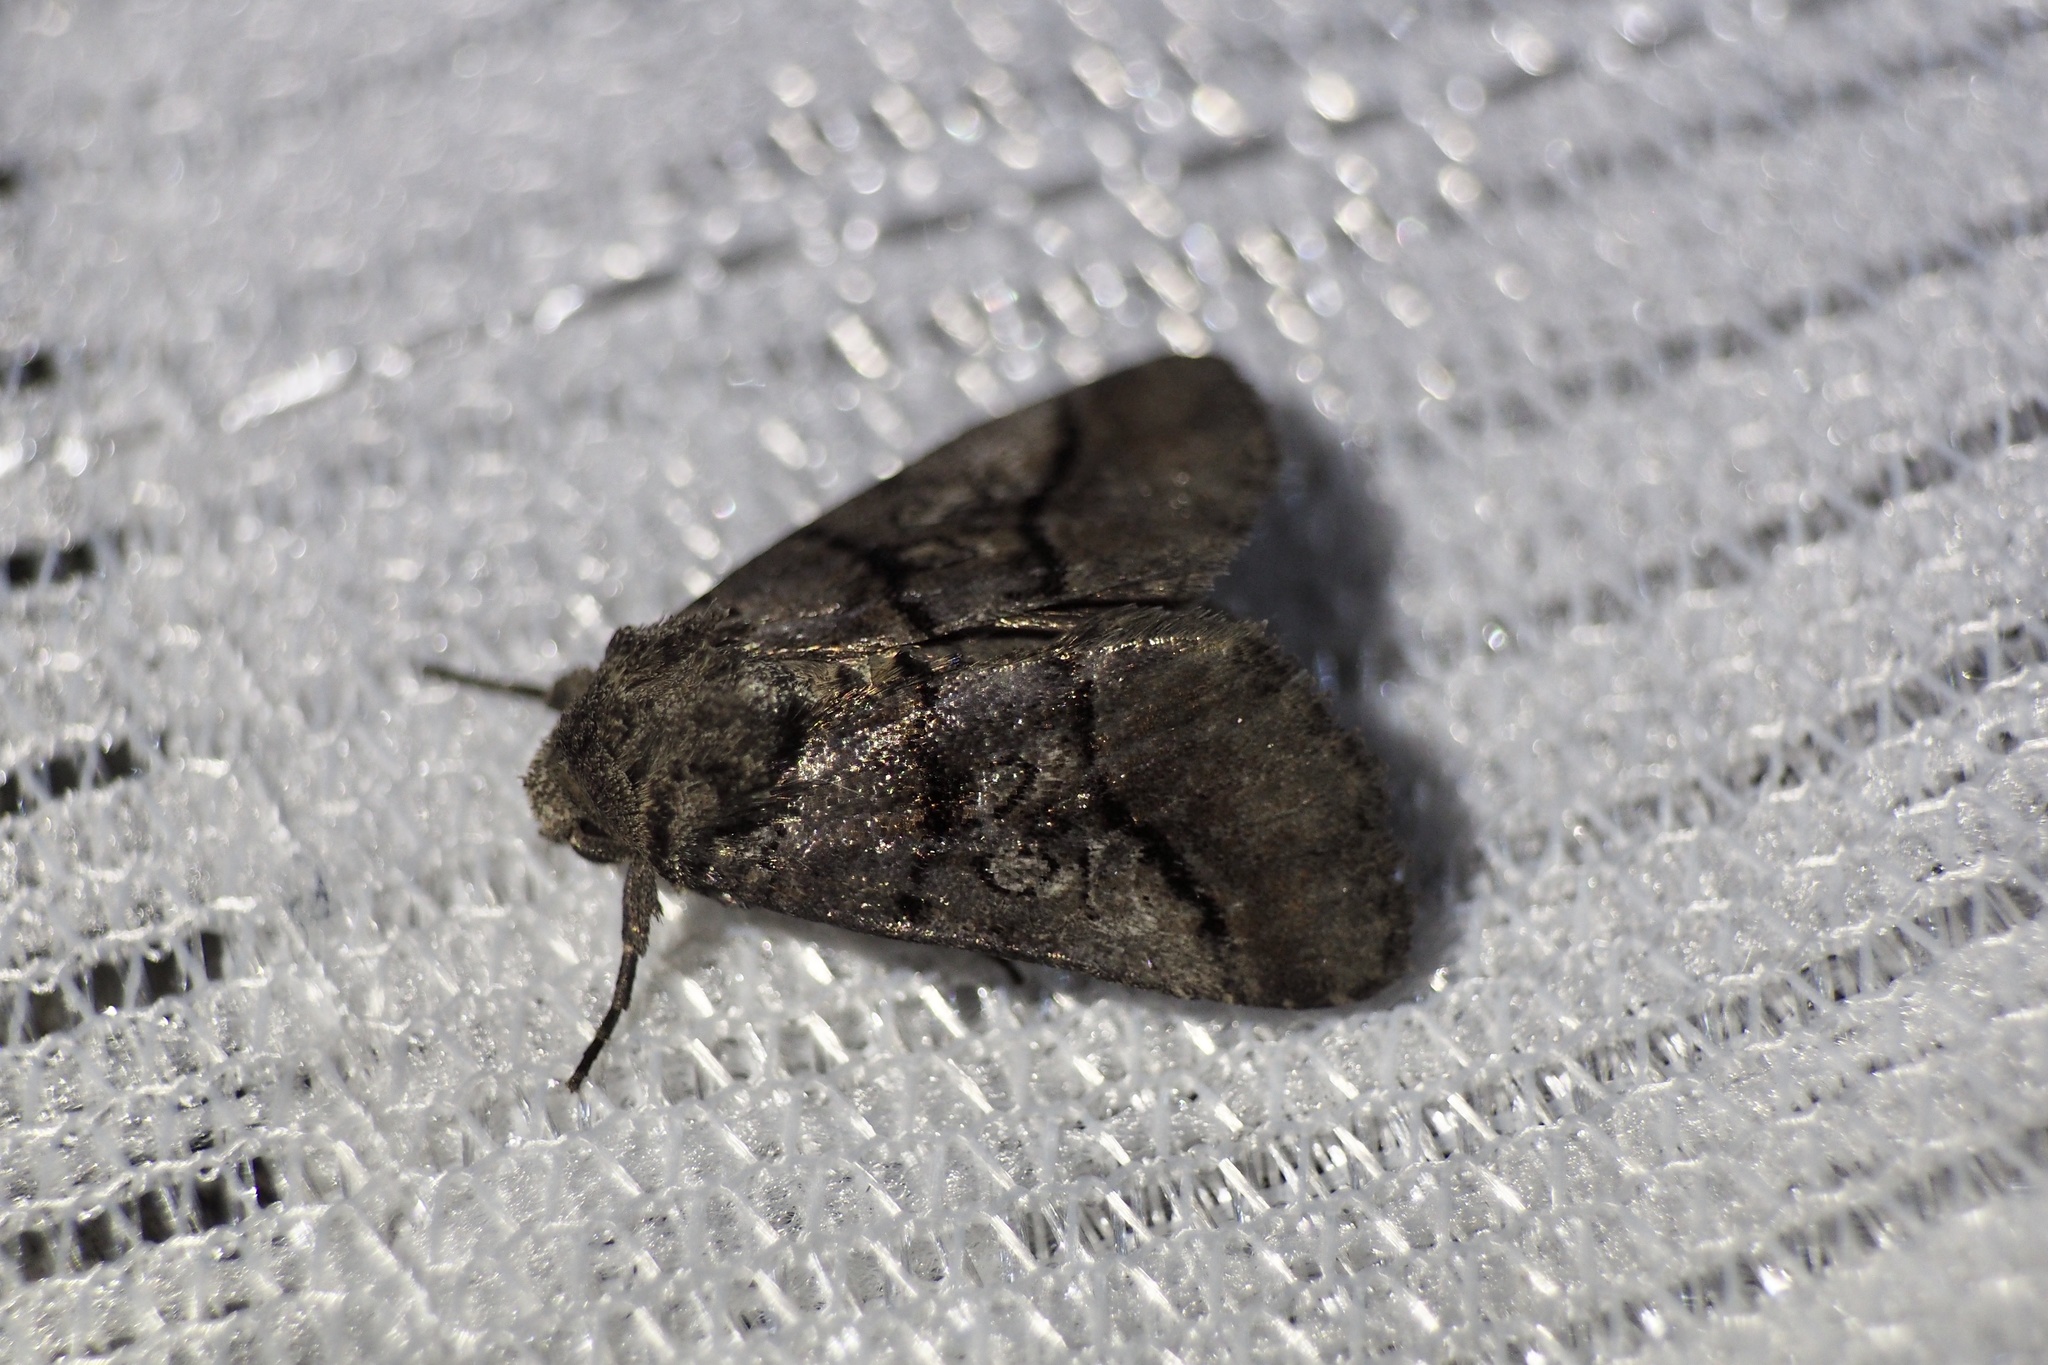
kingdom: Animalia
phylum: Arthropoda
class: Insecta
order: Lepidoptera
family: Noctuidae
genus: Protomiselia
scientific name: Protomiselia bilinea
